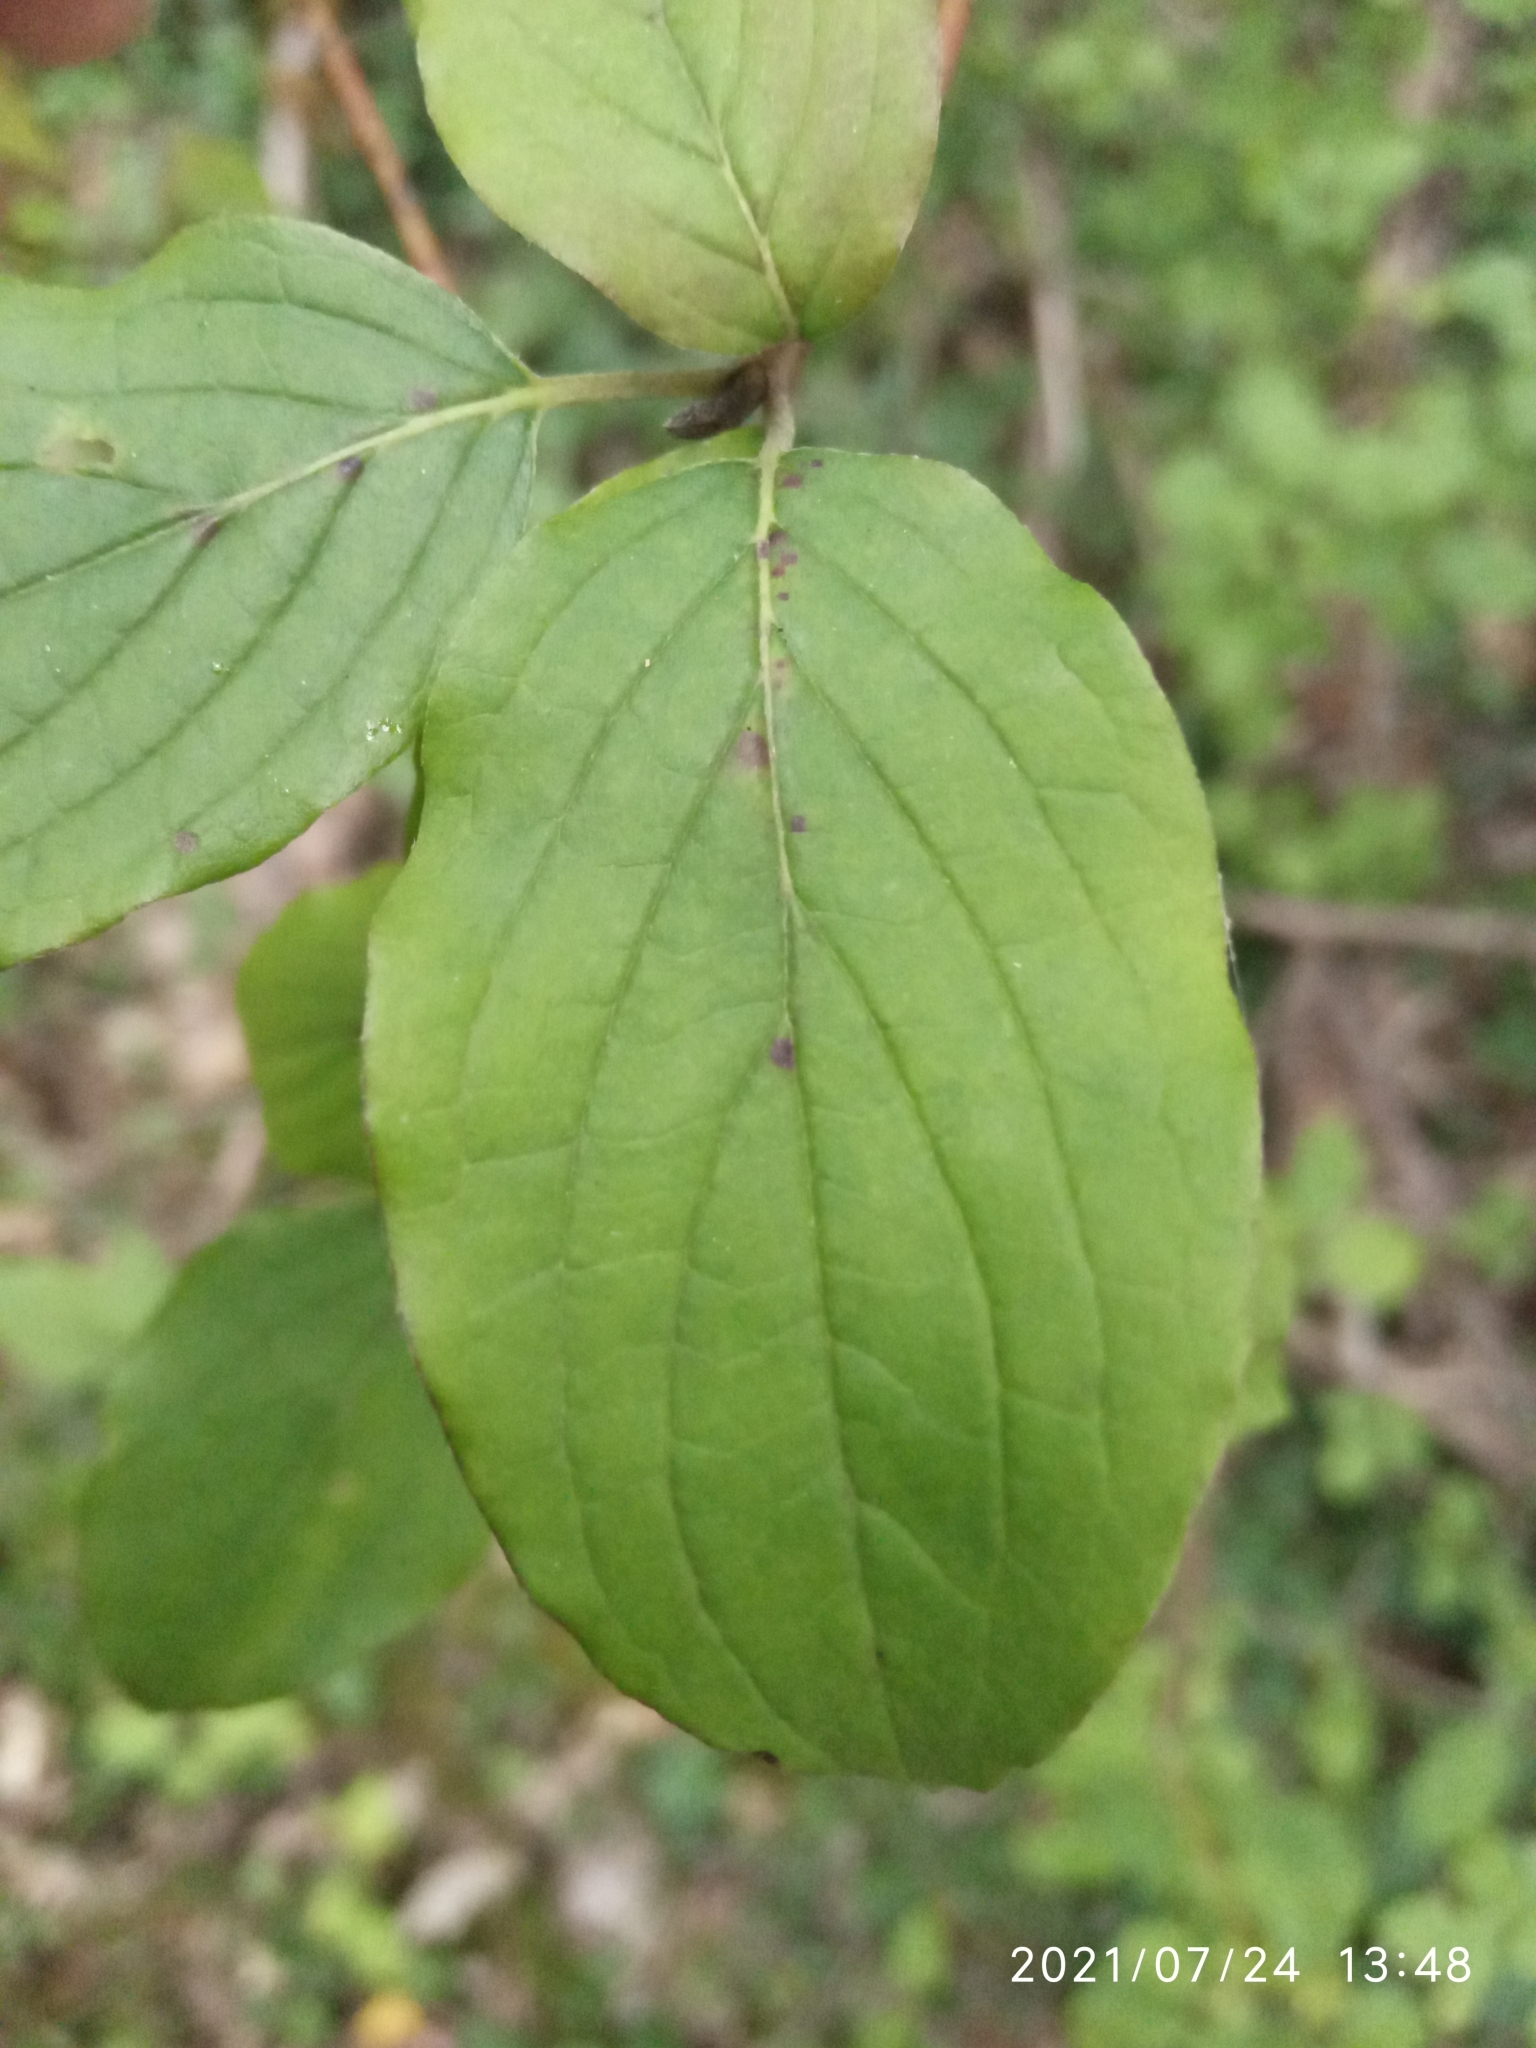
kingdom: Plantae
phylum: Tracheophyta
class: Magnoliopsida
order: Cornales
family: Cornaceae
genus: Cornus
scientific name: Cornus sanguinea
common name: Dogwood
